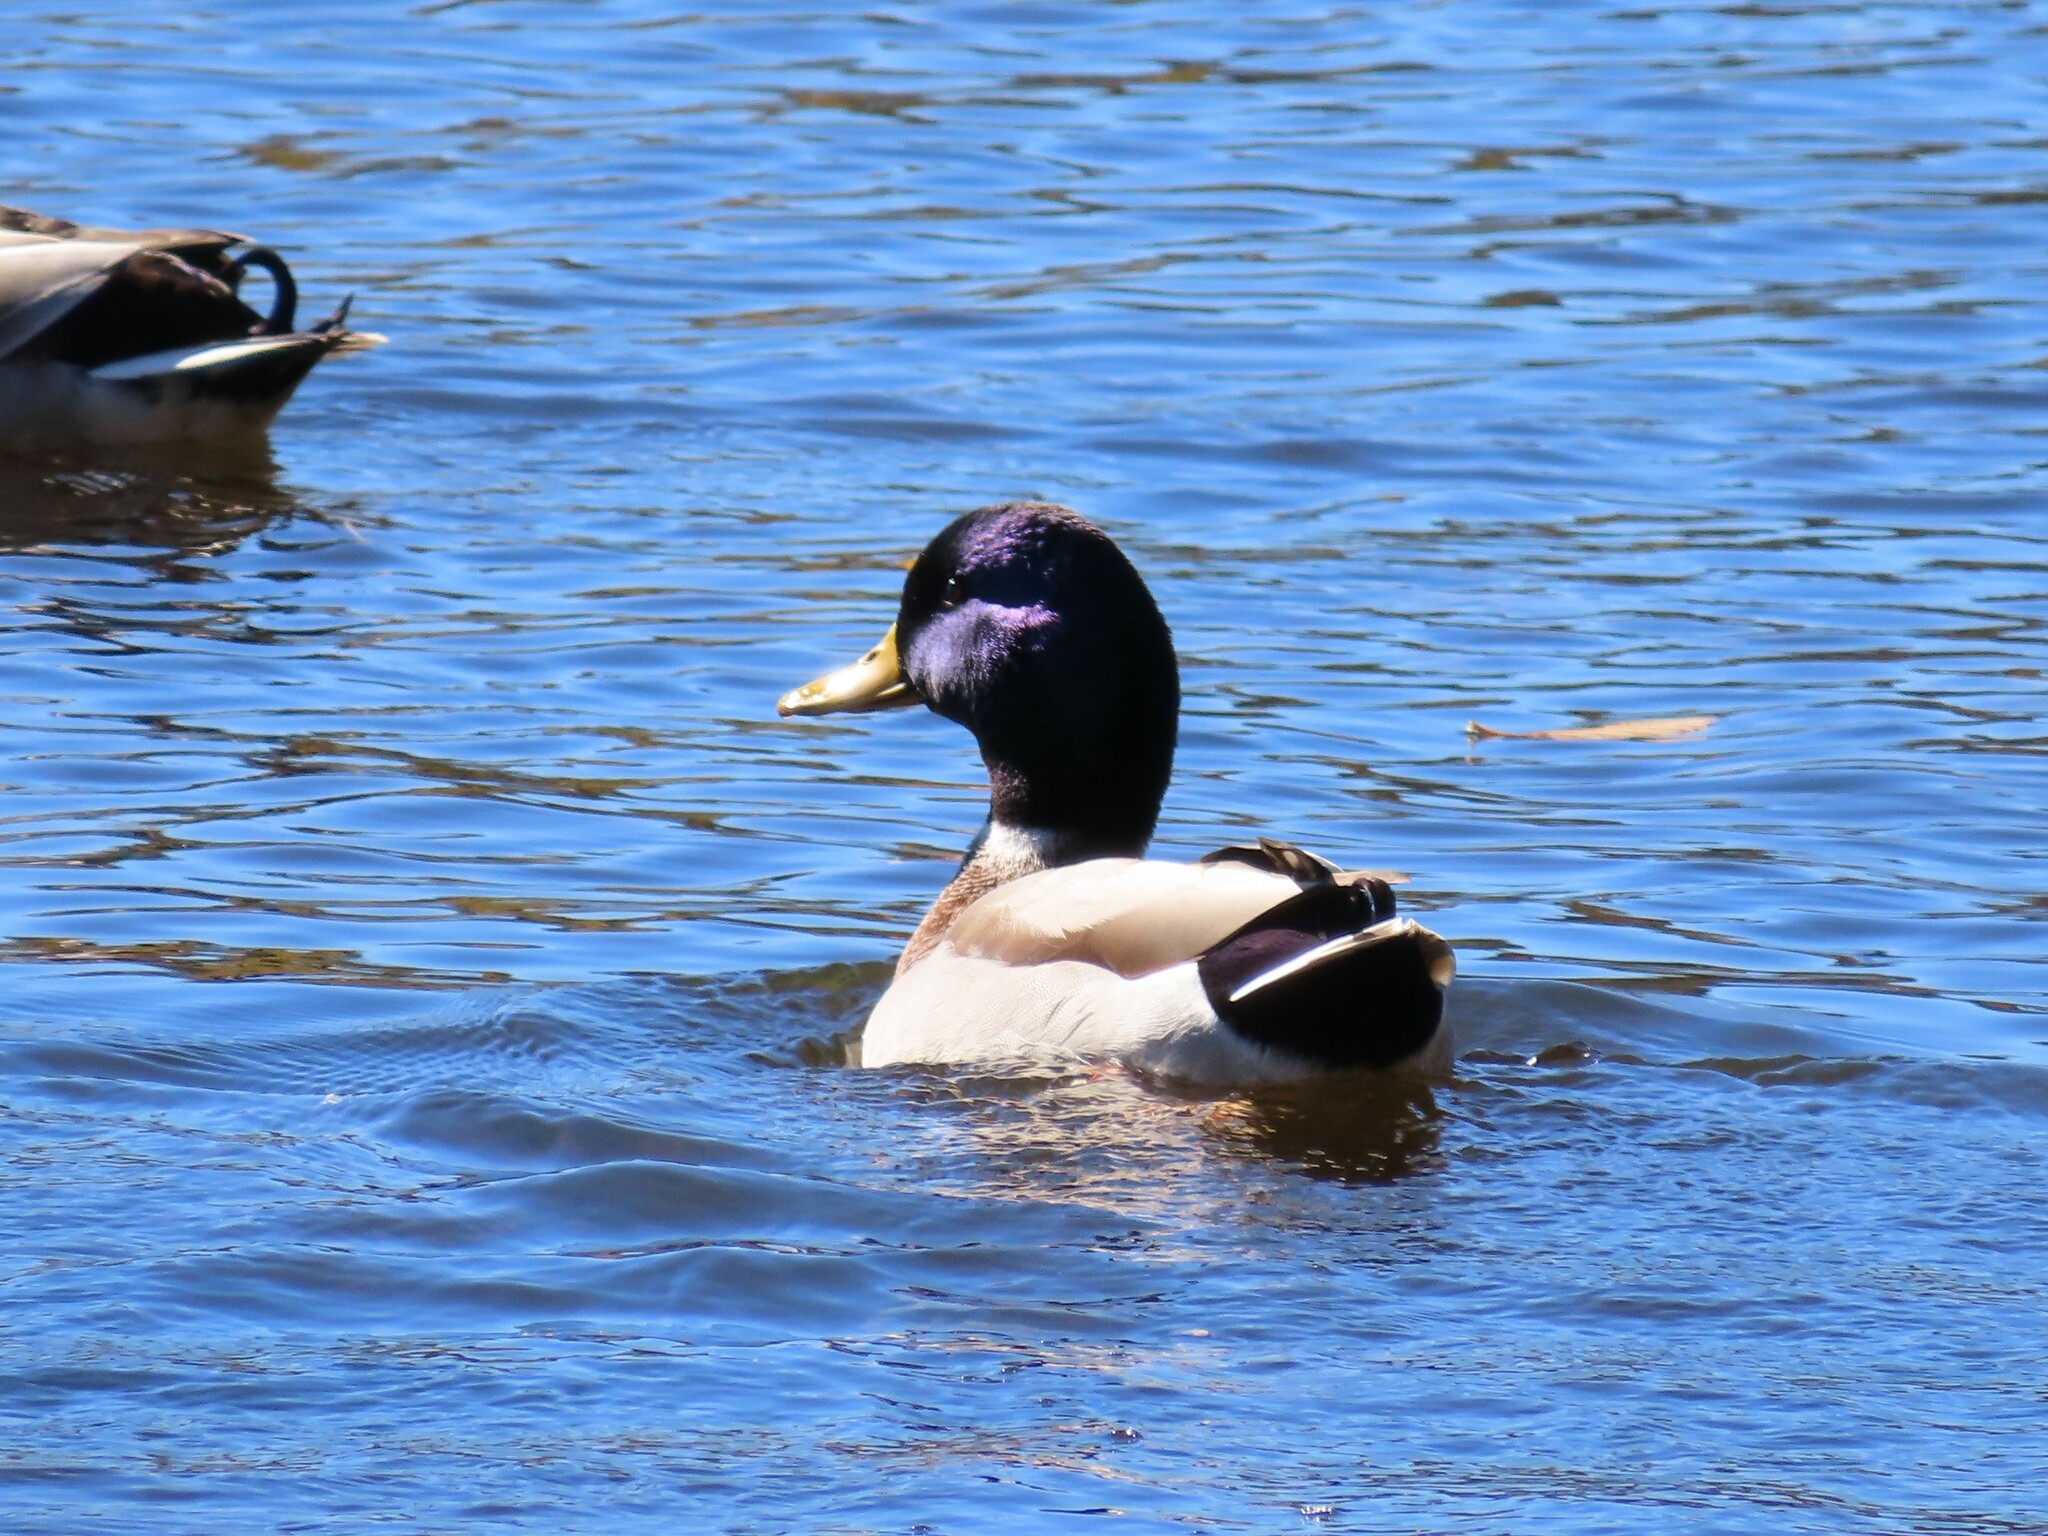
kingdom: Animalia
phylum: Chordata
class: Aves
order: Anseriformes
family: Anatidae
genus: Anas
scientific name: Anas platyrhynchos
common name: Mallard
